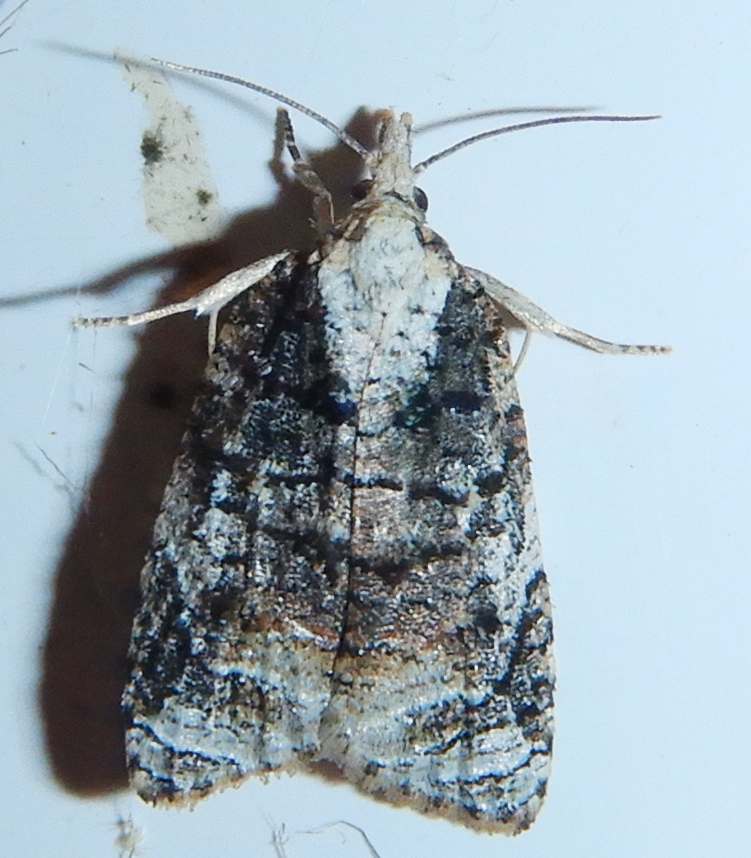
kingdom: Animalia
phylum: Arthropoda
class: Insecta
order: Lepidoptera
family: Tortricidae
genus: Platynota
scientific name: Platynota exasperatana
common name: Exasperating platynota moth
